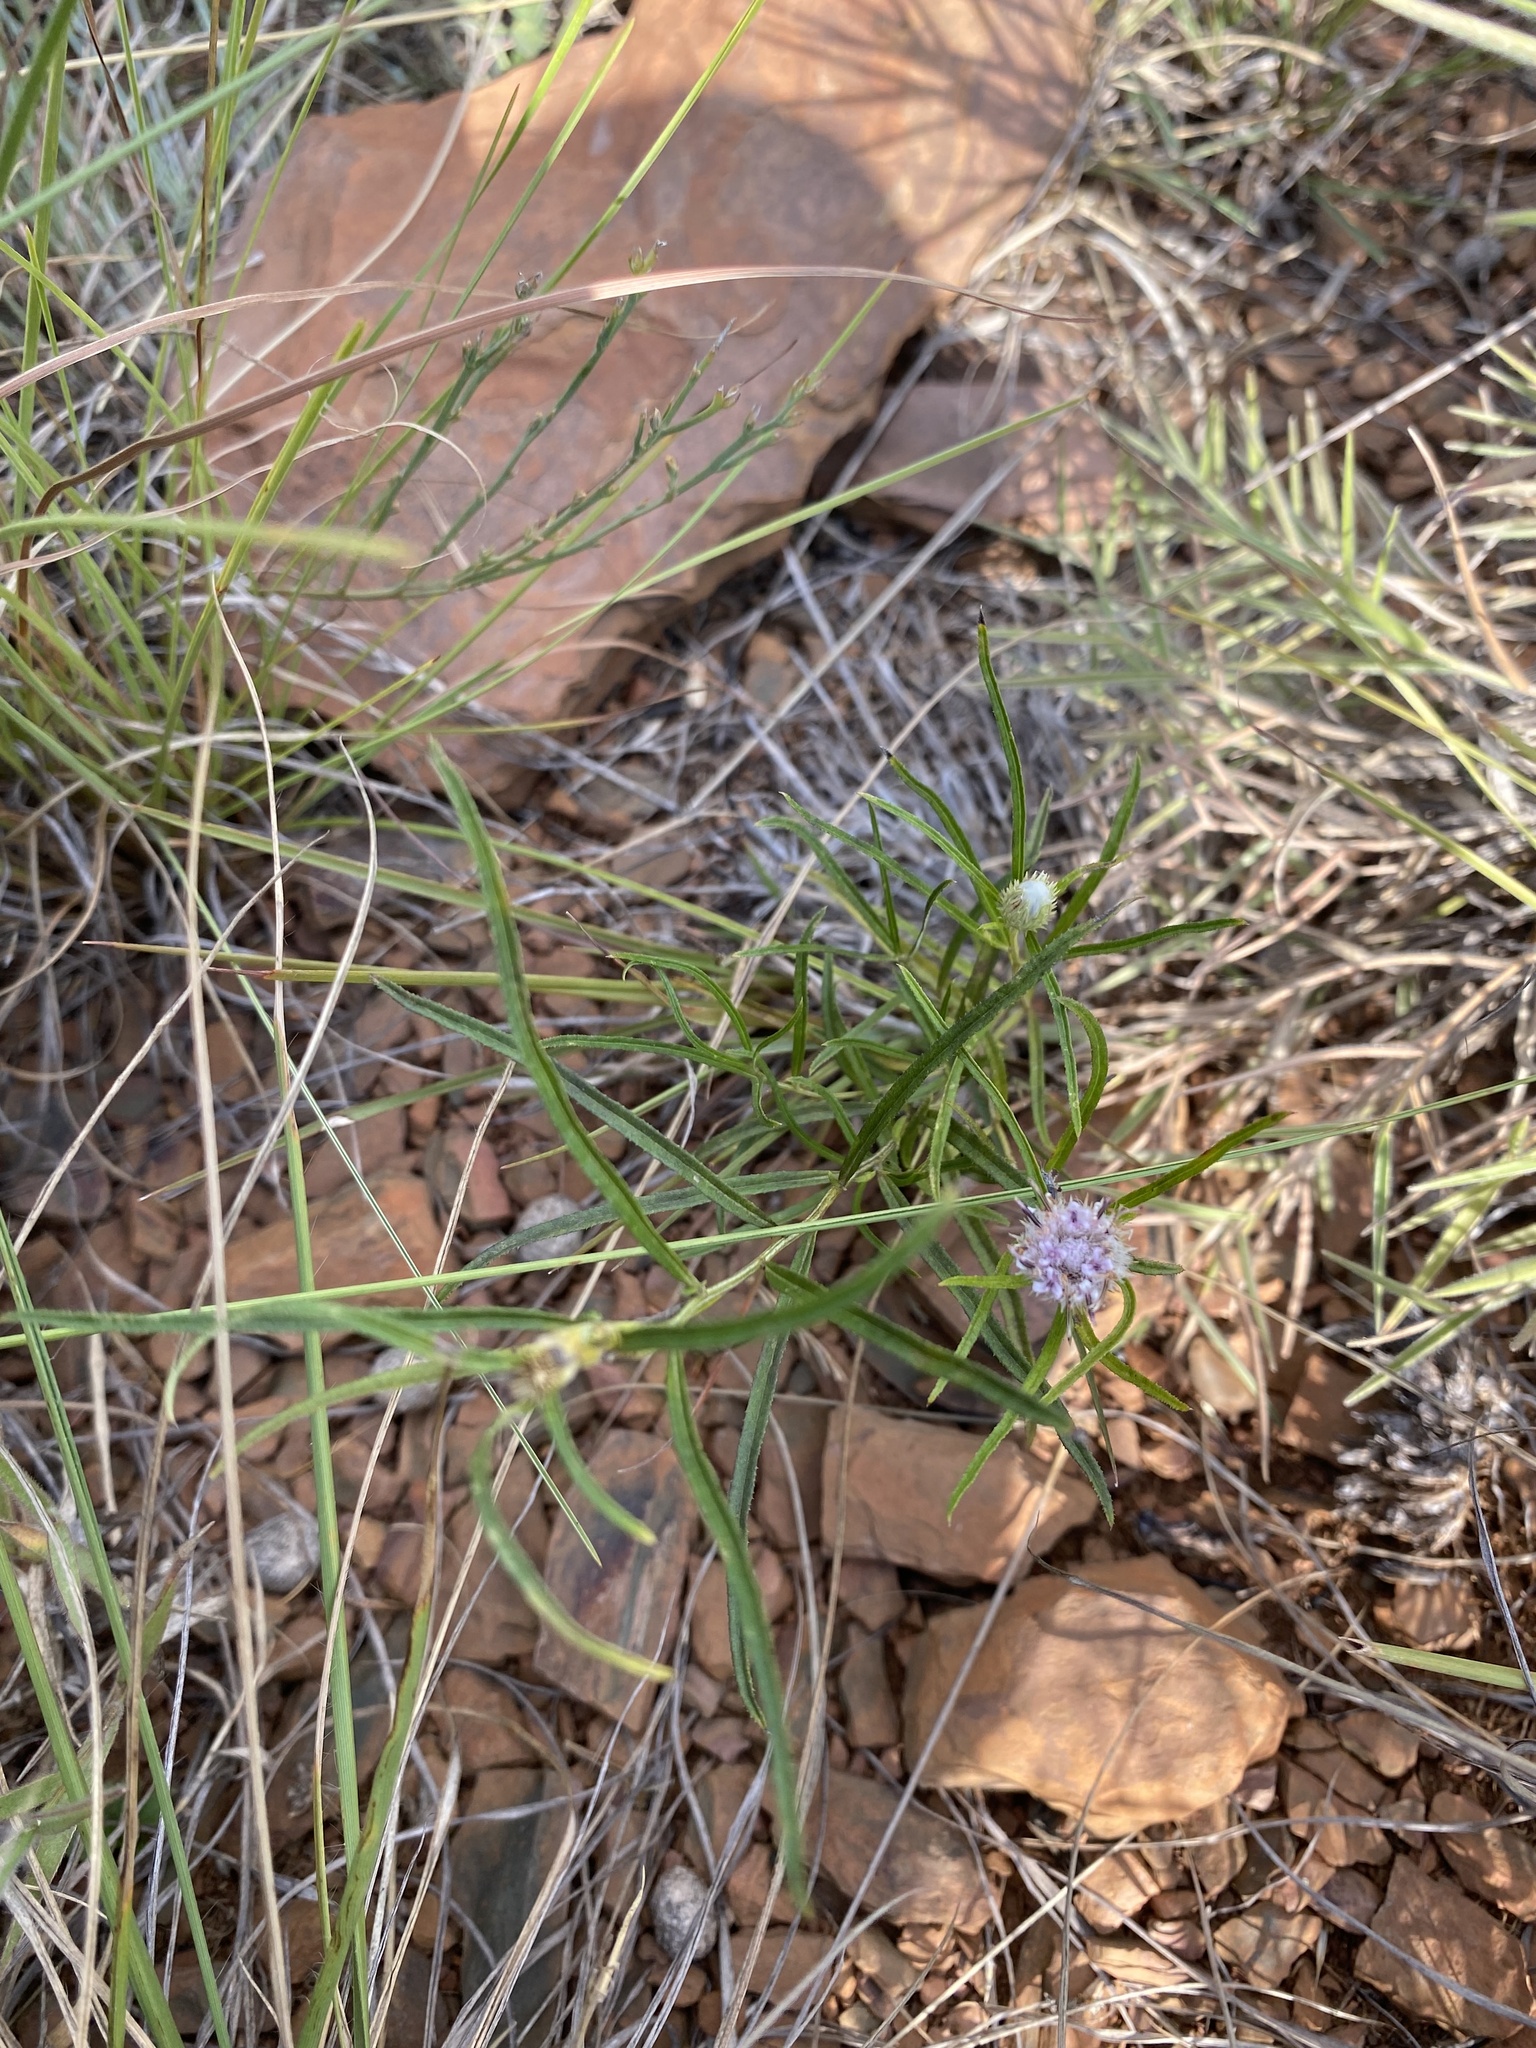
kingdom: Plantae
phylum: Tracheophyta
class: Magnoliopsida
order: Asterales
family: Asteraceae
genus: Dicoma
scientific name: Dicoma anomala
